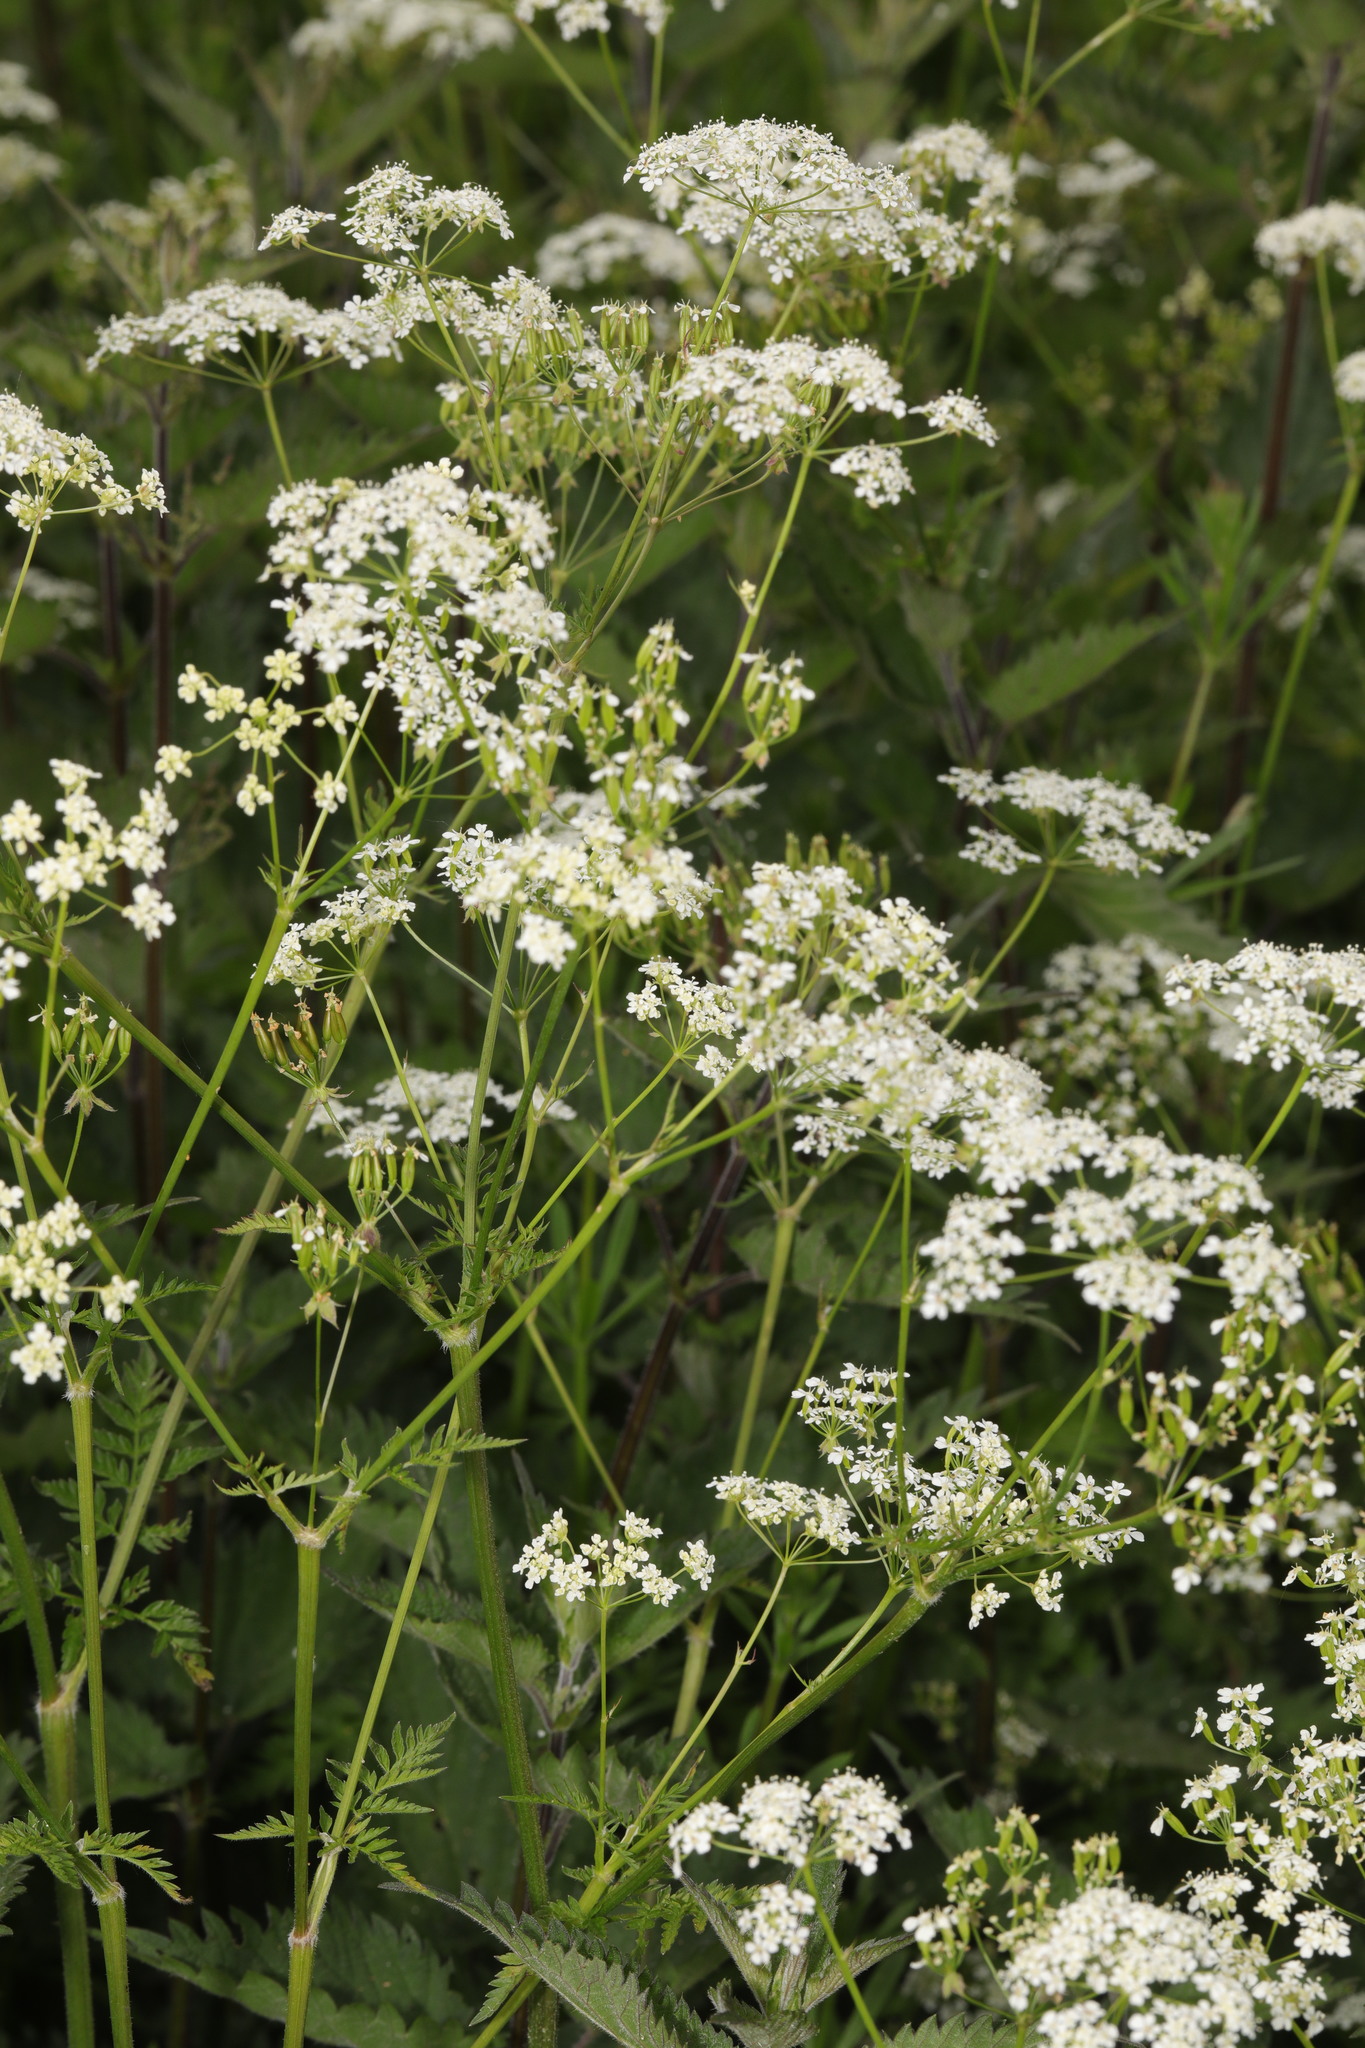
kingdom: Plantae
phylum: Tracheophyta
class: Magnoliopsida
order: Apiales
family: Apiaceae
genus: Anthriscus
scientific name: Anthriscus sylvestris
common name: Cow parsley
